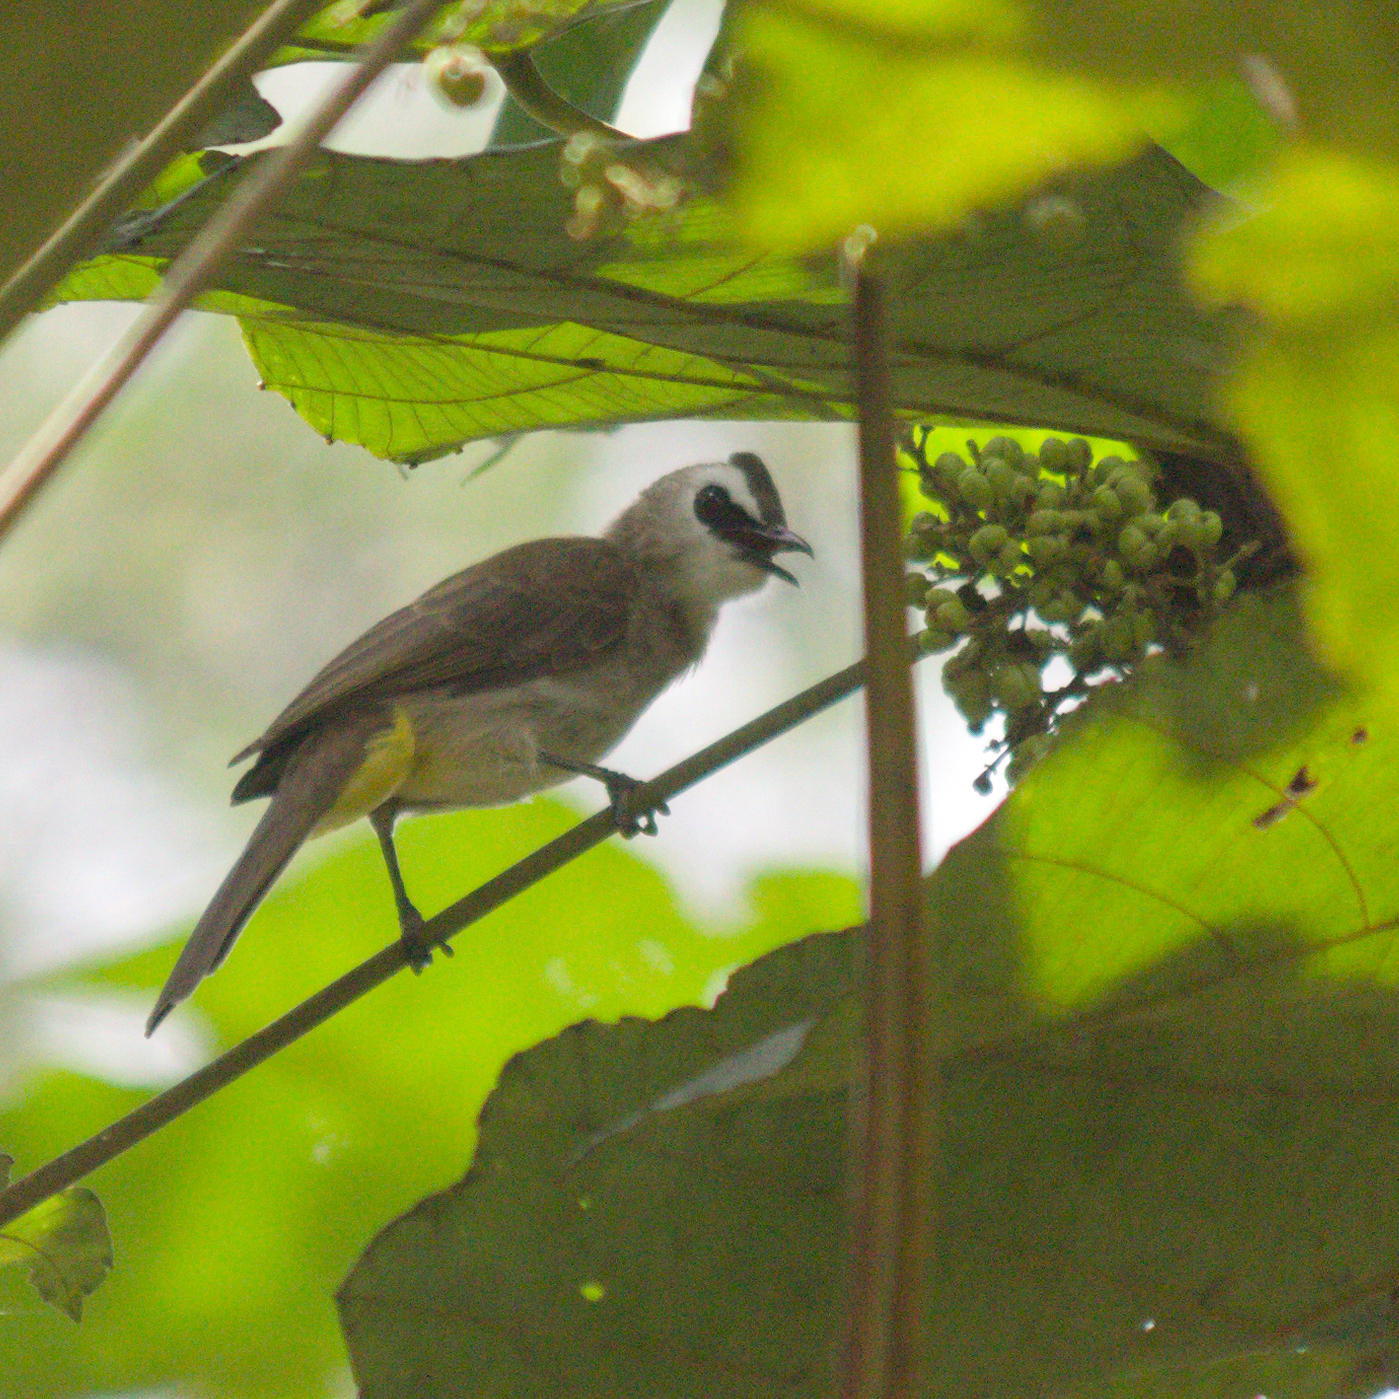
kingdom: Animalia
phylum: Chordata
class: Aves
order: Passeriformes
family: Pycnonotidae
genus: Pycnonotus
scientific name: Pycnonotus goiavier
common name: Yellow-vented bulbul
